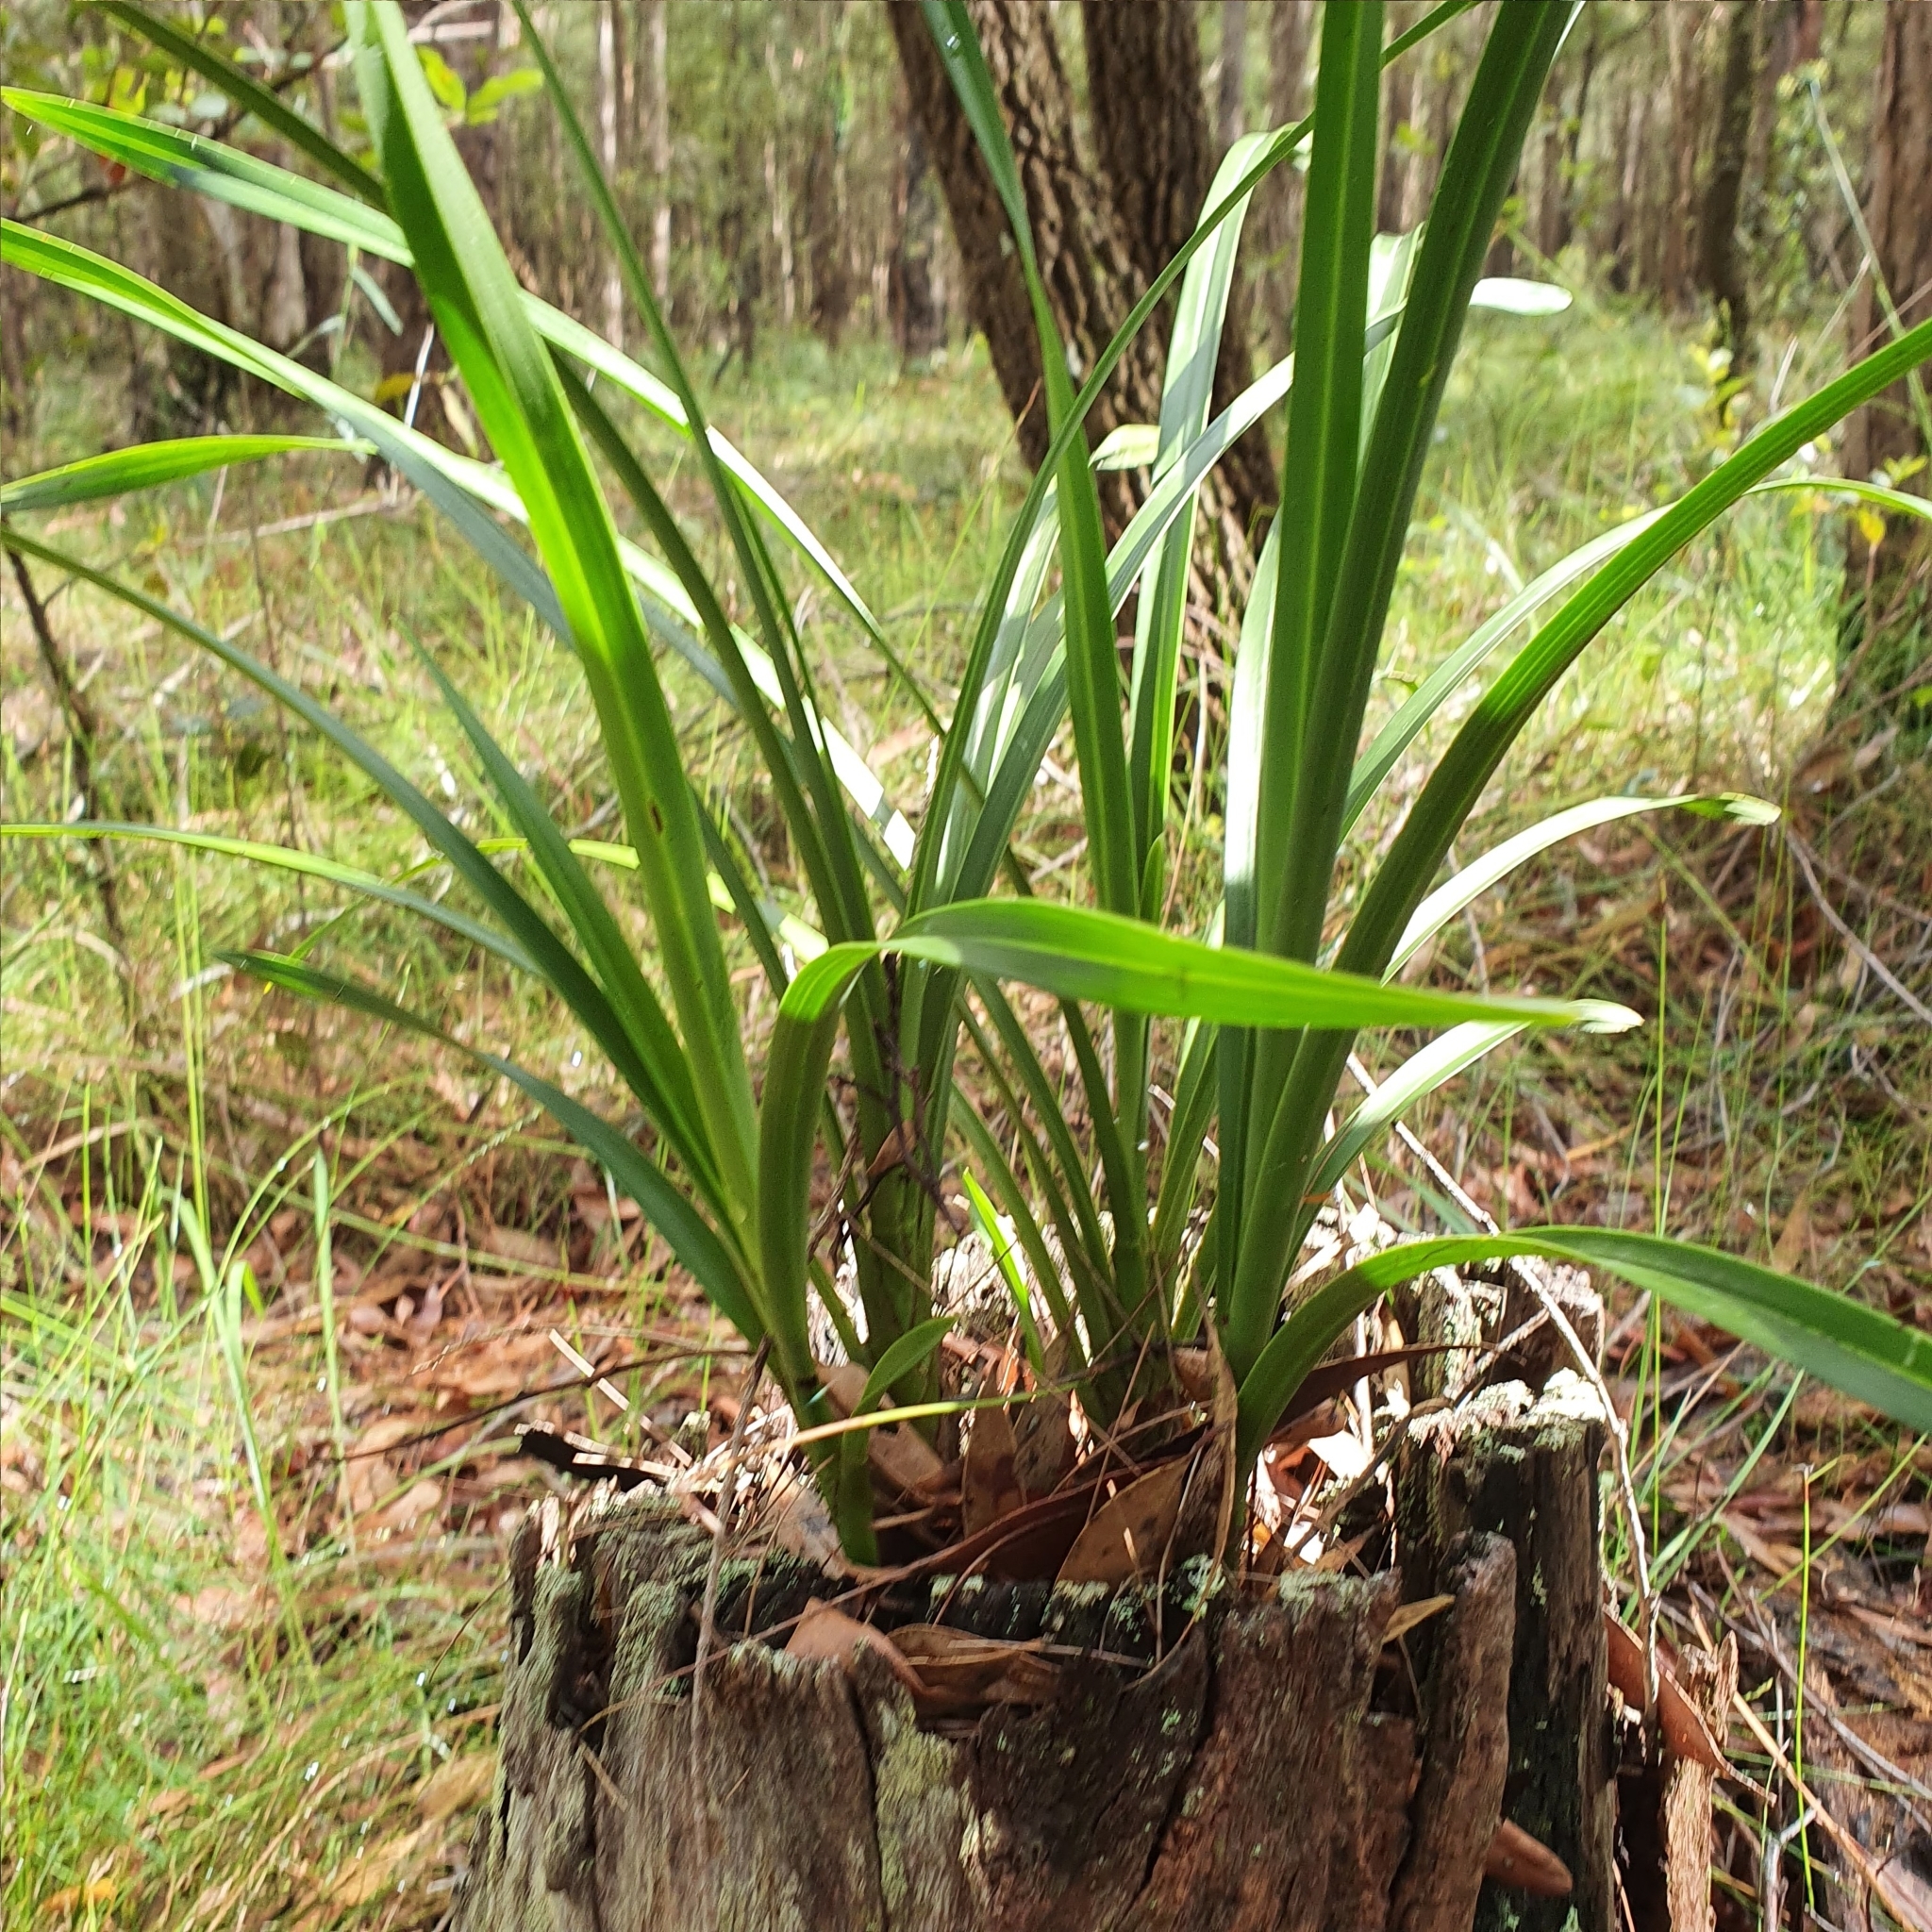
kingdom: Plantae
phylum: Tracheophyta
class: Liliopsida
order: Asparagales
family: Orchidaceae
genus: Cymbidium
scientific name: Cymbidium suave
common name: Snake orchid
